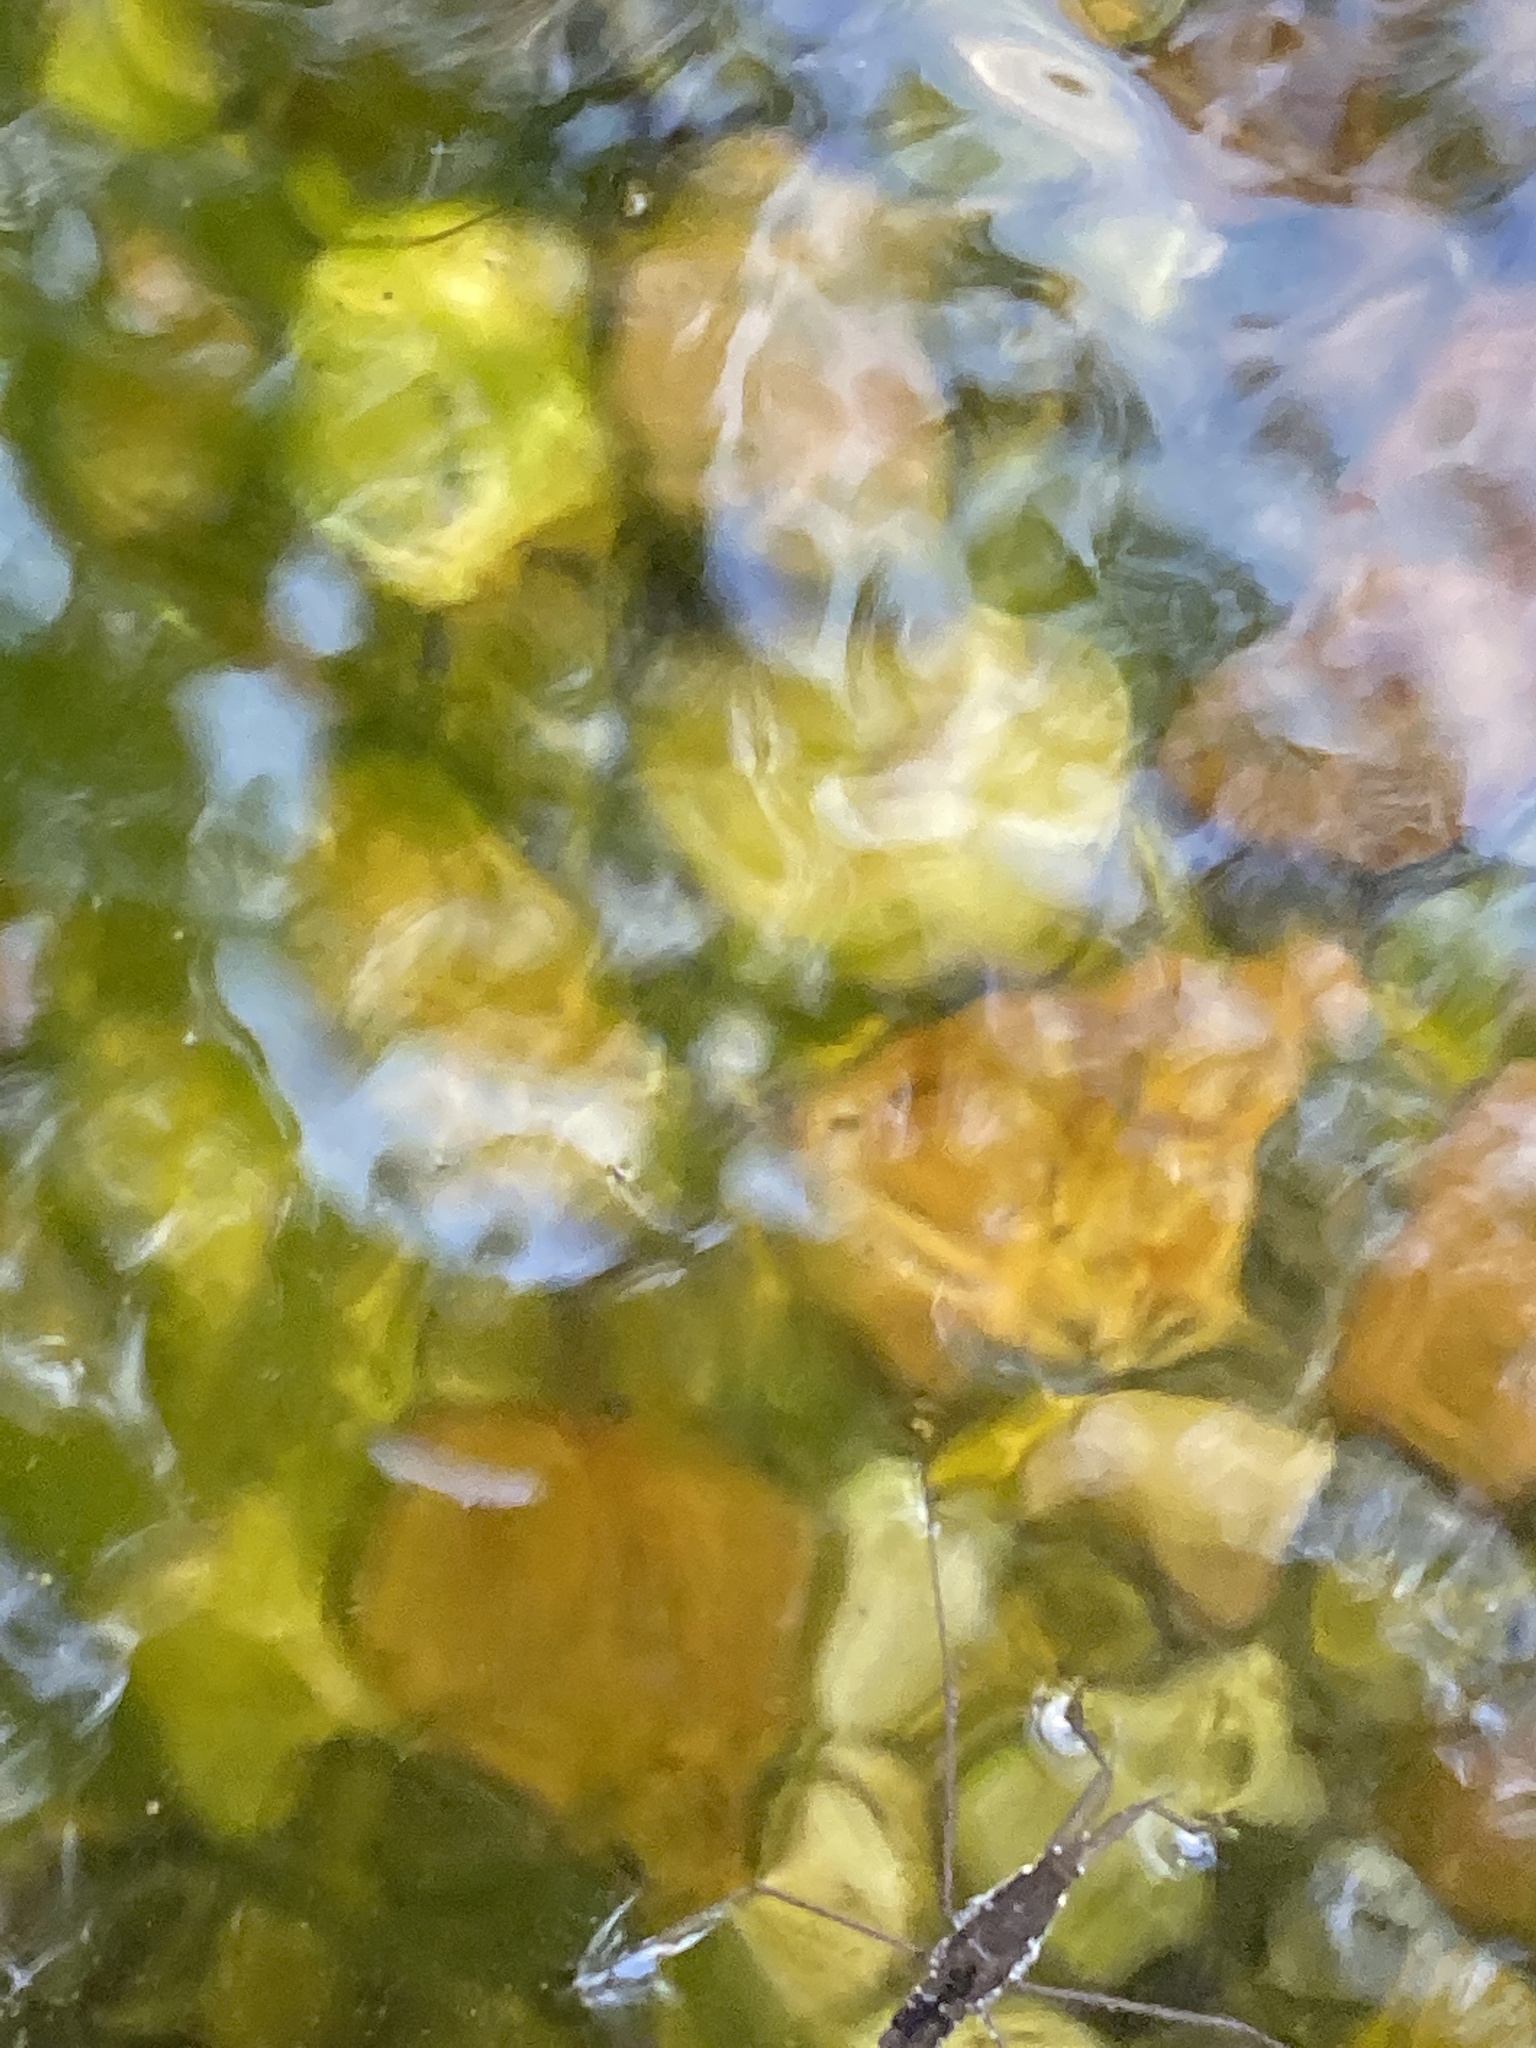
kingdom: Animalia
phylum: Arthropoda
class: Insecta
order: Hemiptera
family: Gerridae
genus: Aquarius
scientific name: Aquarius
